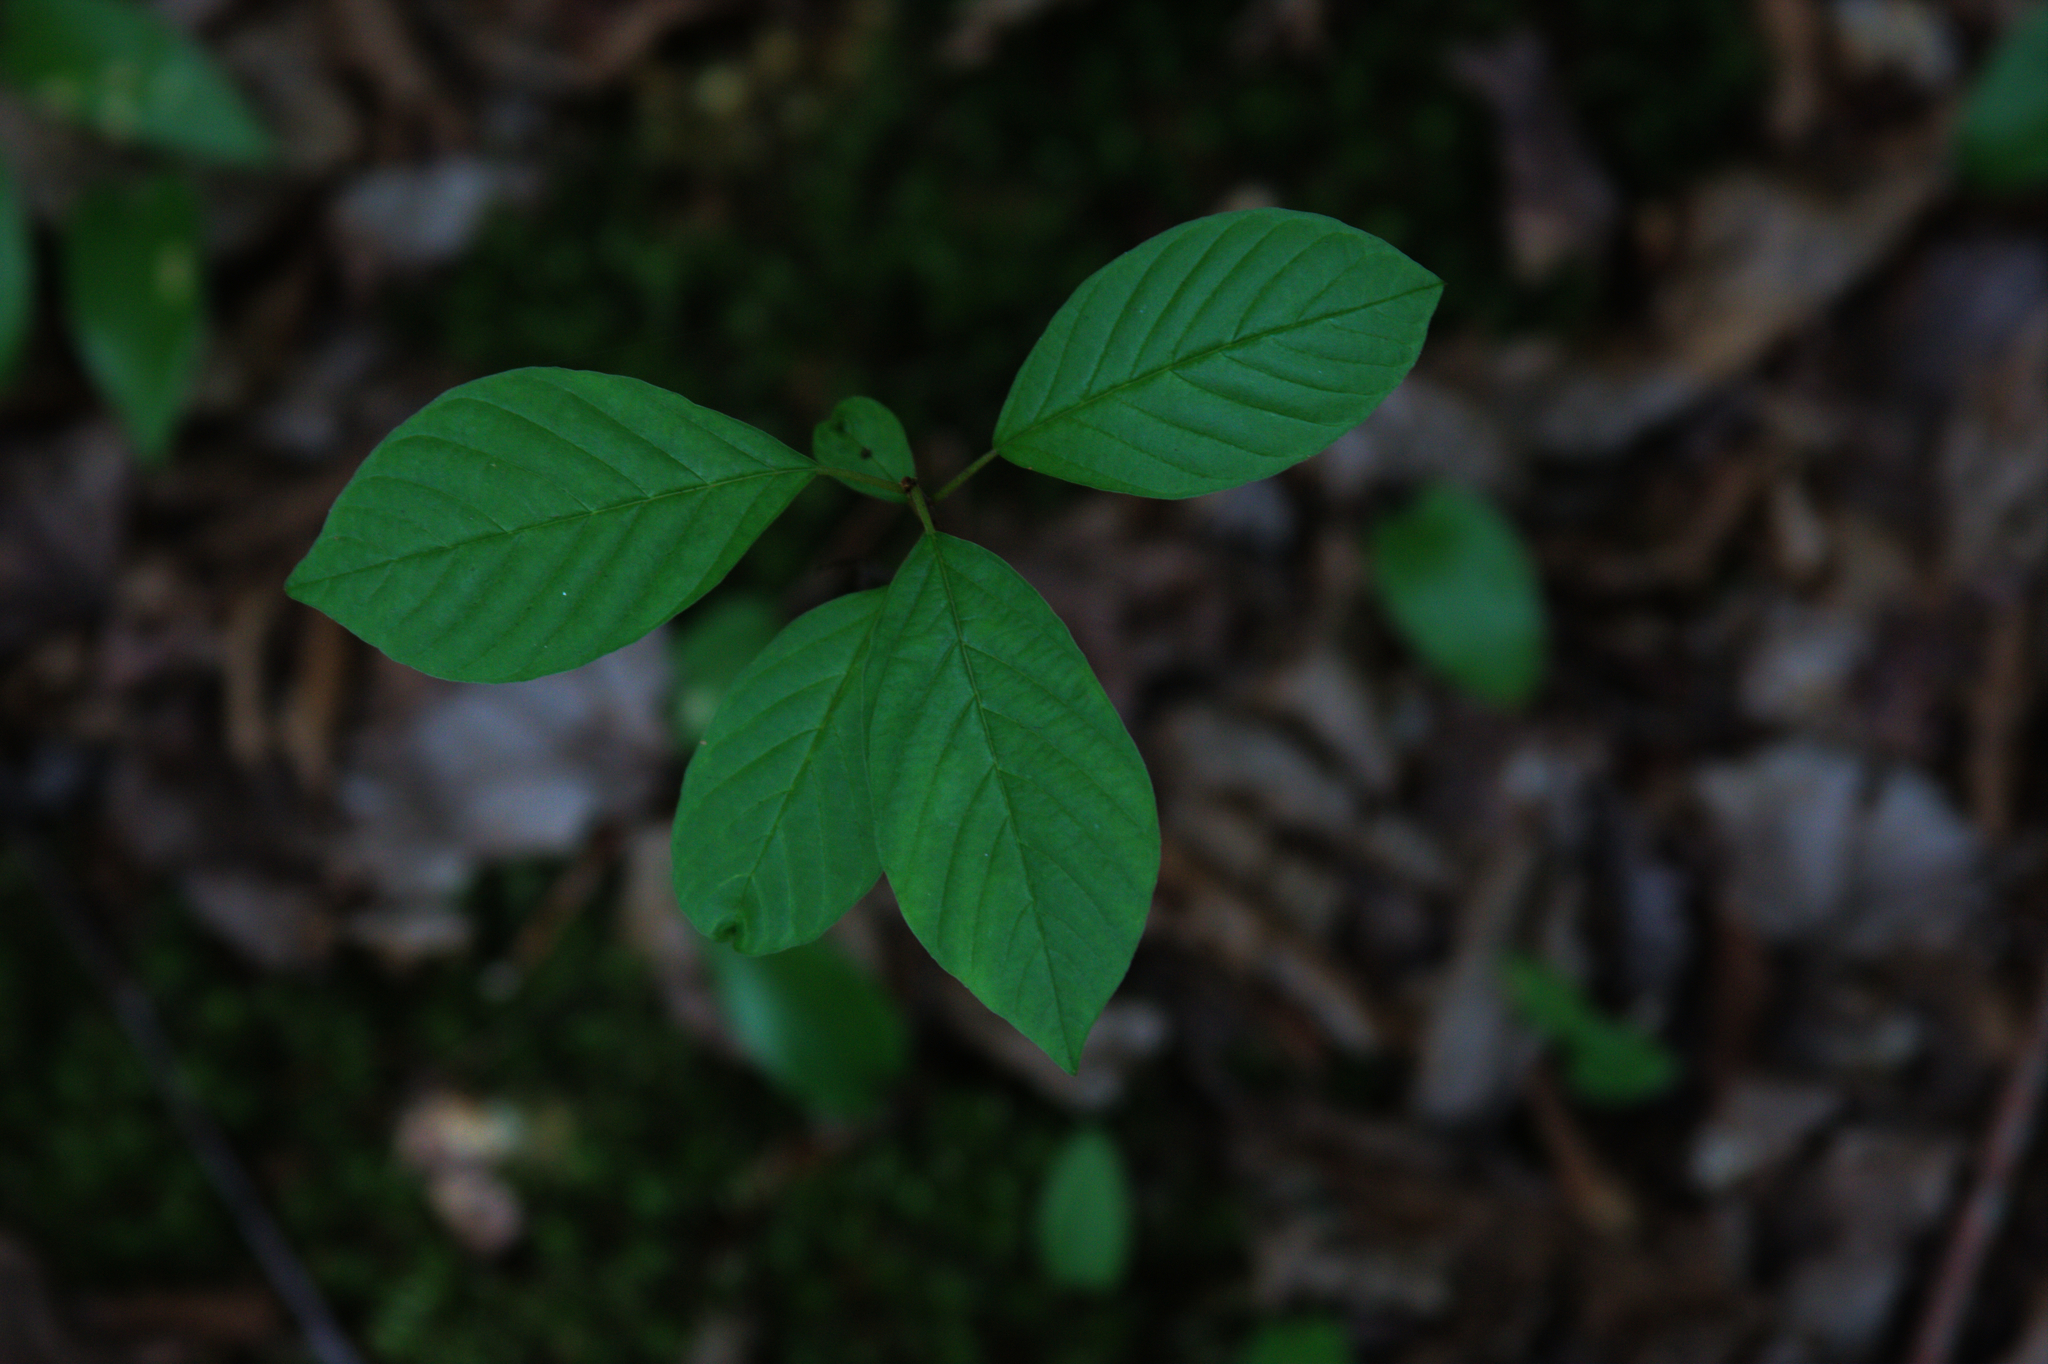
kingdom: Plantae
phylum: Tracheophyta
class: Magnoliopsida
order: Rosales
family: Rhamnaceae
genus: Frangula
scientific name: Frangula alnus
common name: Alder buckthorn
